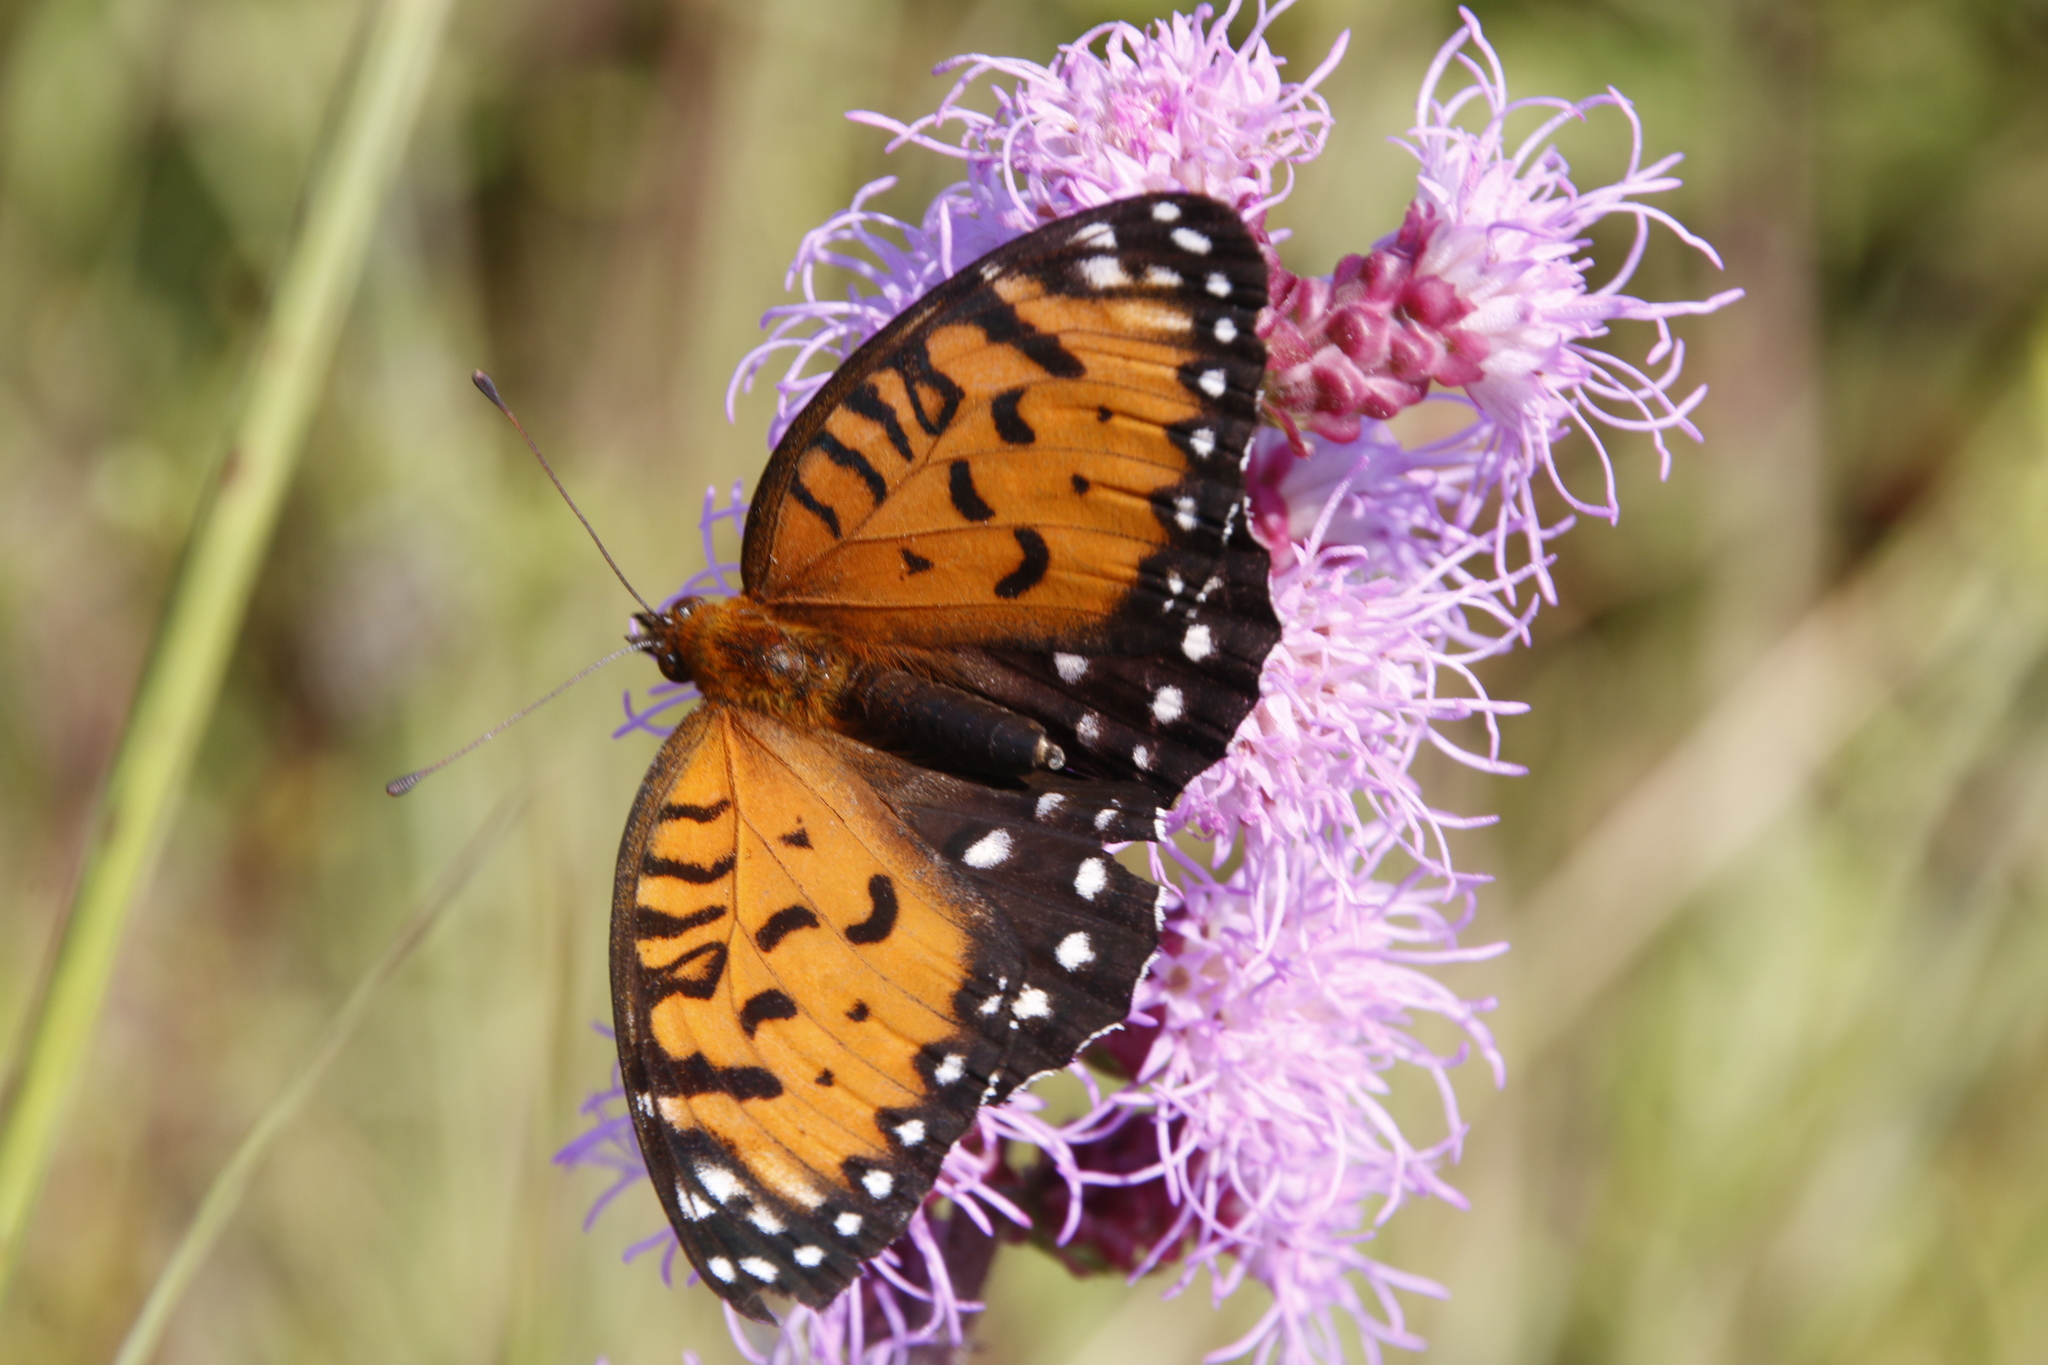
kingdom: Animalia
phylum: Arthropoda
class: Insecta
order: Lepidoptera
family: Nymphalidae
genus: Speyeria
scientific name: Speyeria idalia
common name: Regal fritillary
